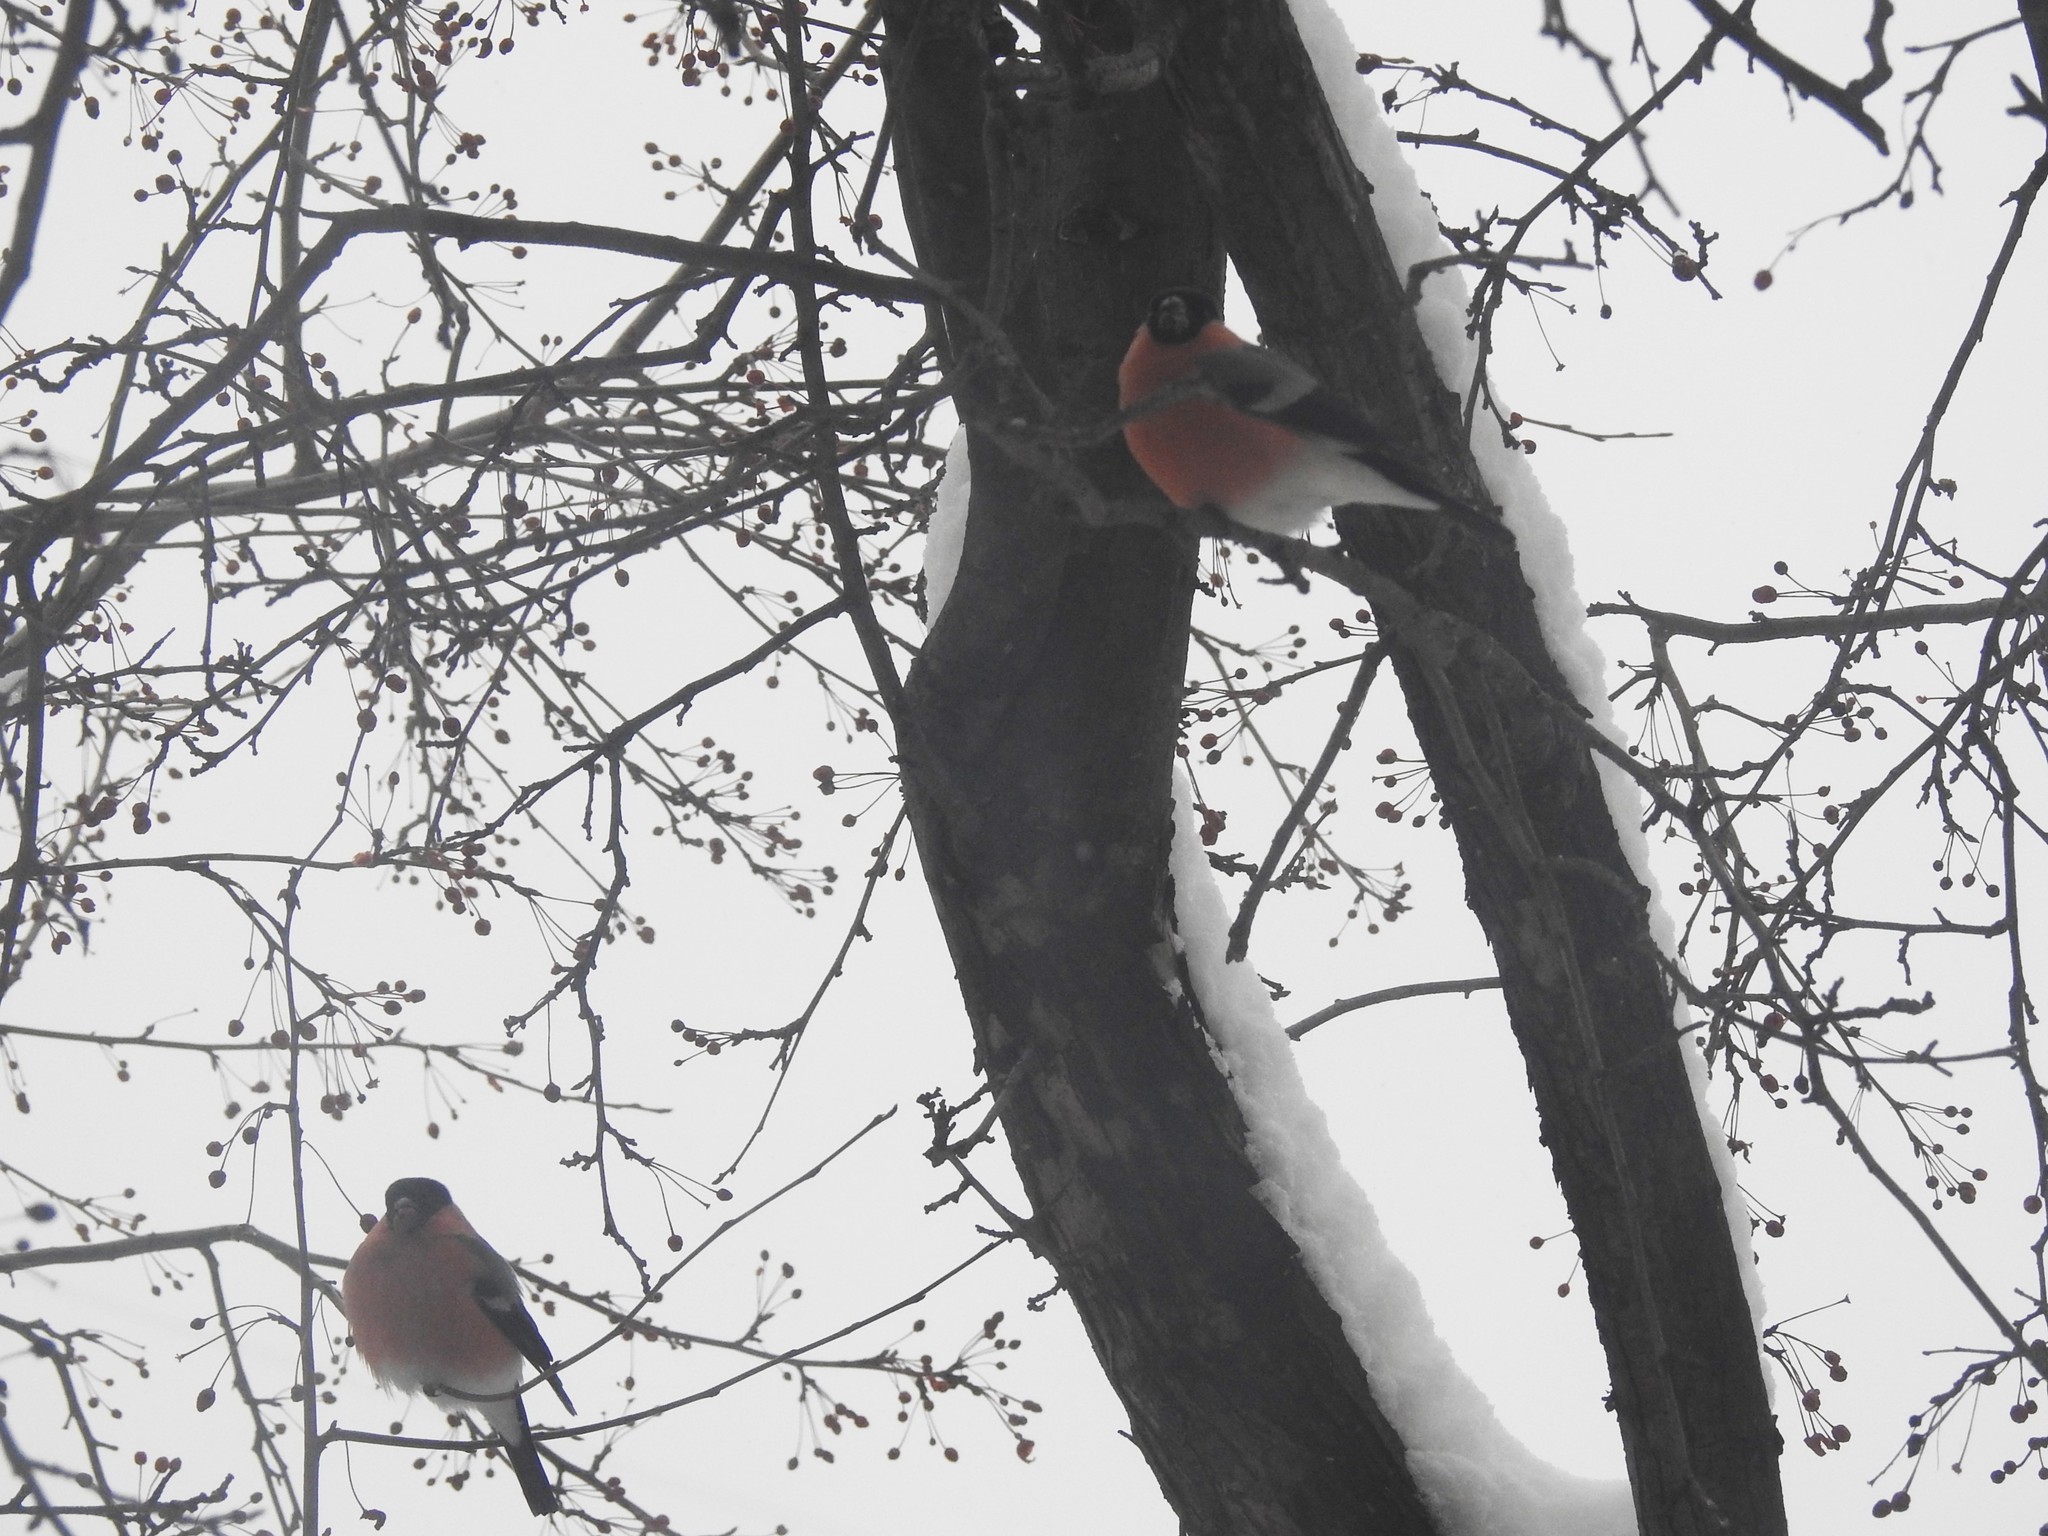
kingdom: Animalia
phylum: Chordata
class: Aves
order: Passeriformes
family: Fringillidae
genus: Pyrrhula
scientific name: Pyrrhula pyrrhula
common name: Eurasian bullfinch
